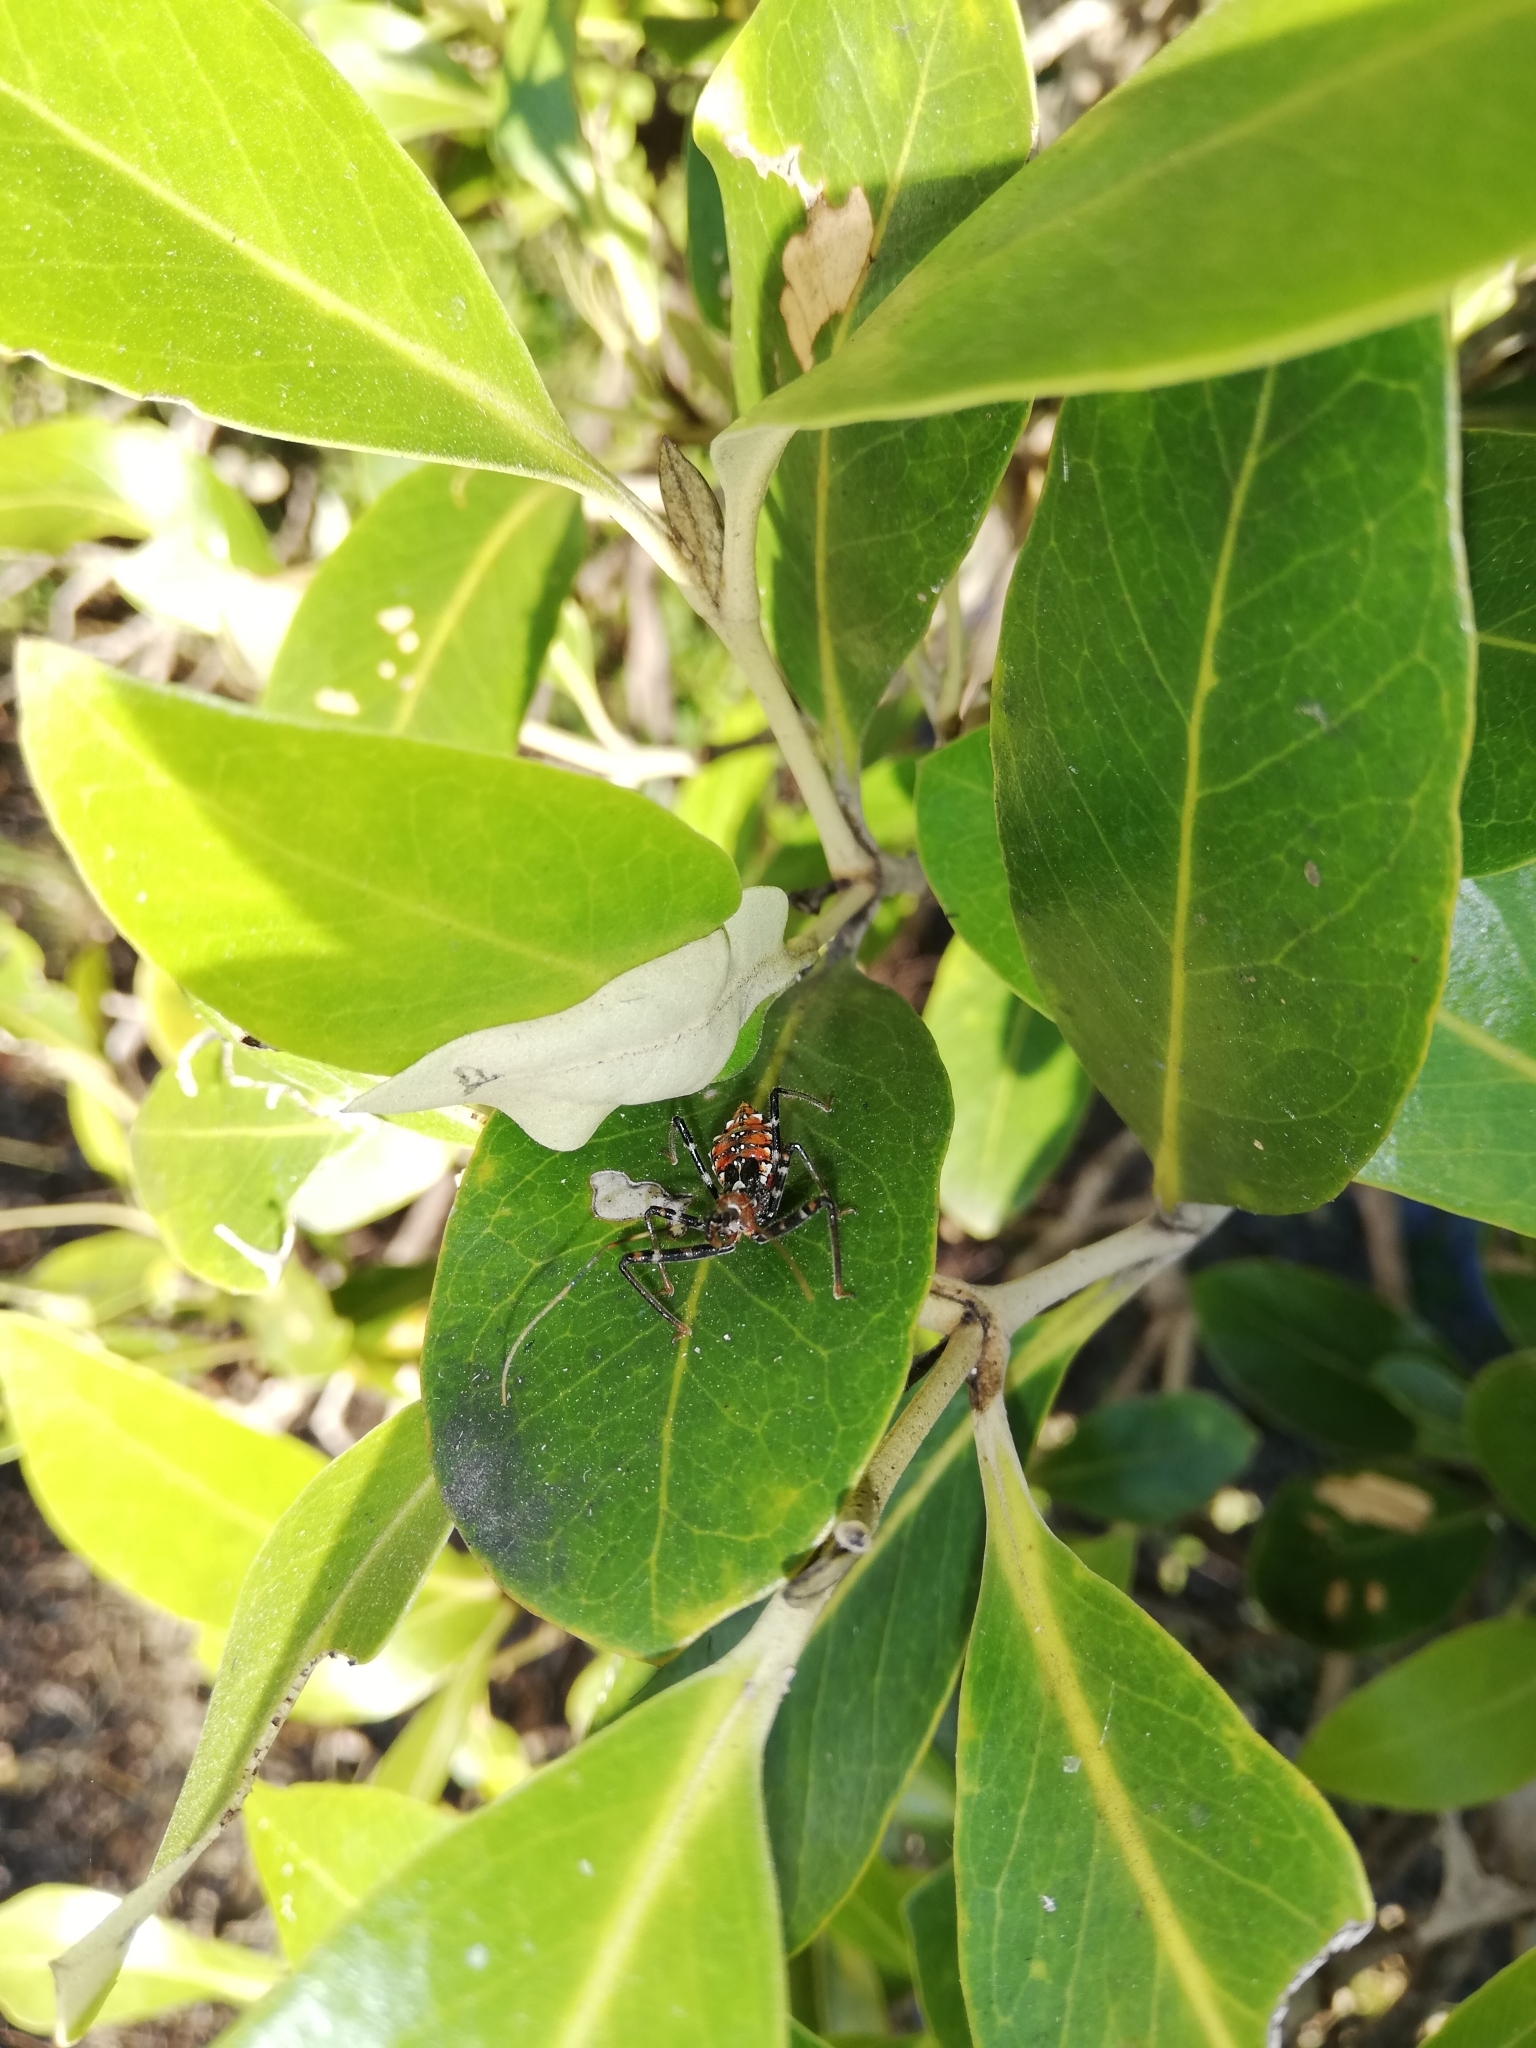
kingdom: Animalia
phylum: Arthropoda
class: Insecta
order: Hemiptera
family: Reduviidae
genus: Pristhesancus
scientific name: Pristhesancus plagipennis
